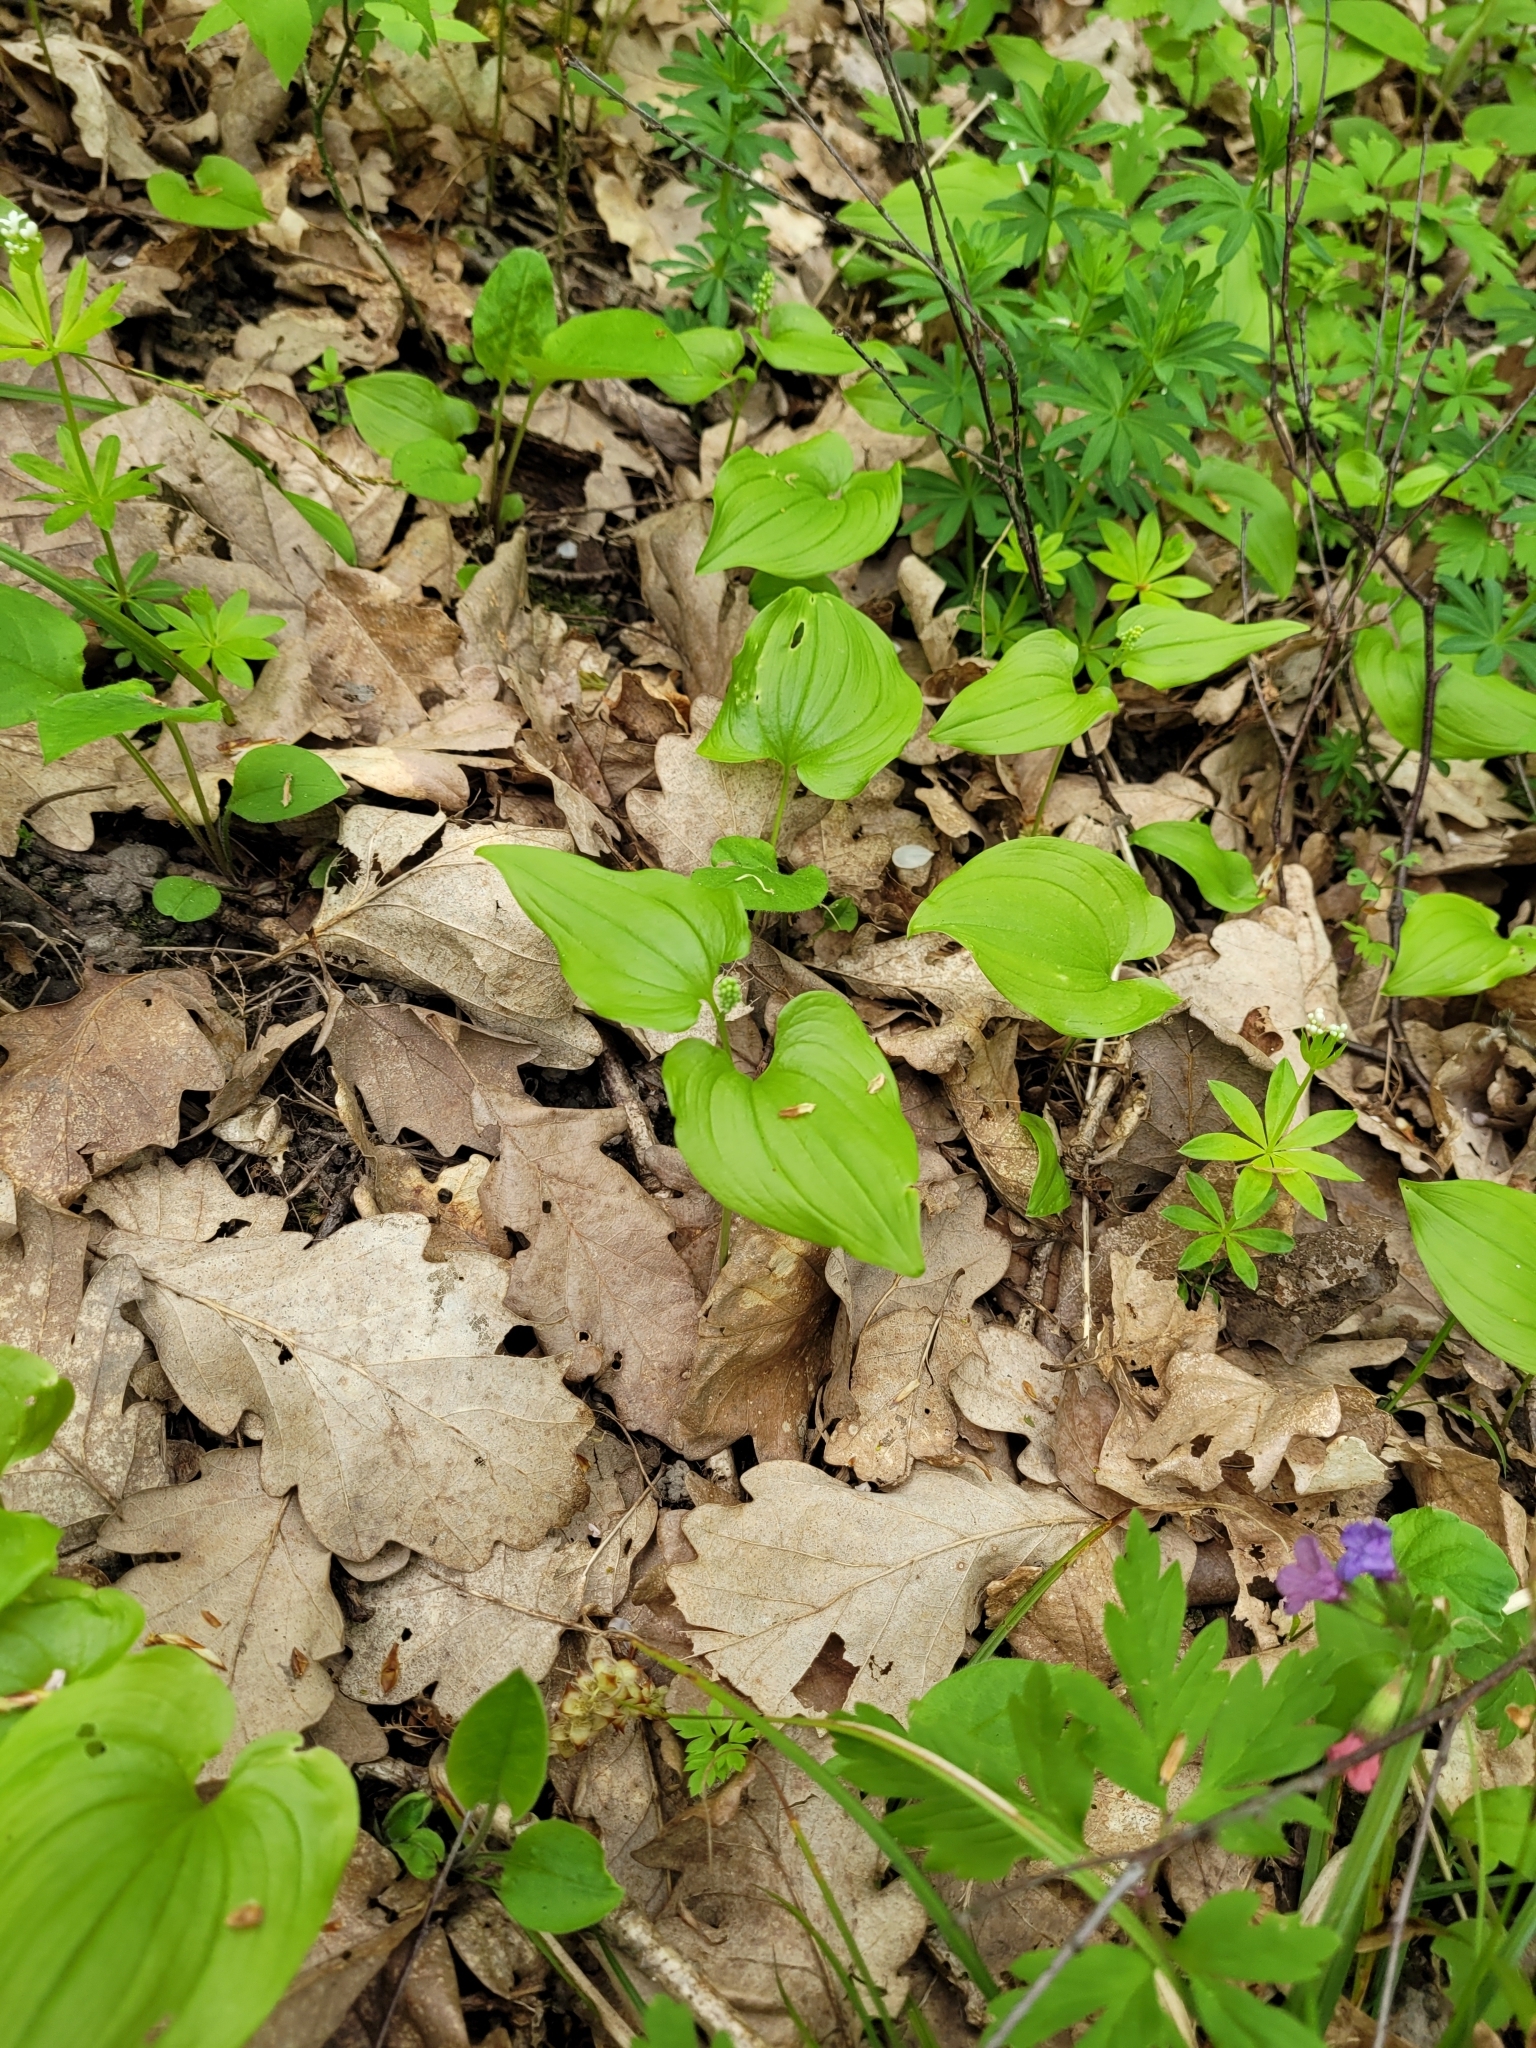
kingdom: Plantae
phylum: Tracheophyta
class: Liliopsida
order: Asparagales
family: Asparagaceae
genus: Maianthemum
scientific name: Maianthemum bifolium
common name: May lily
